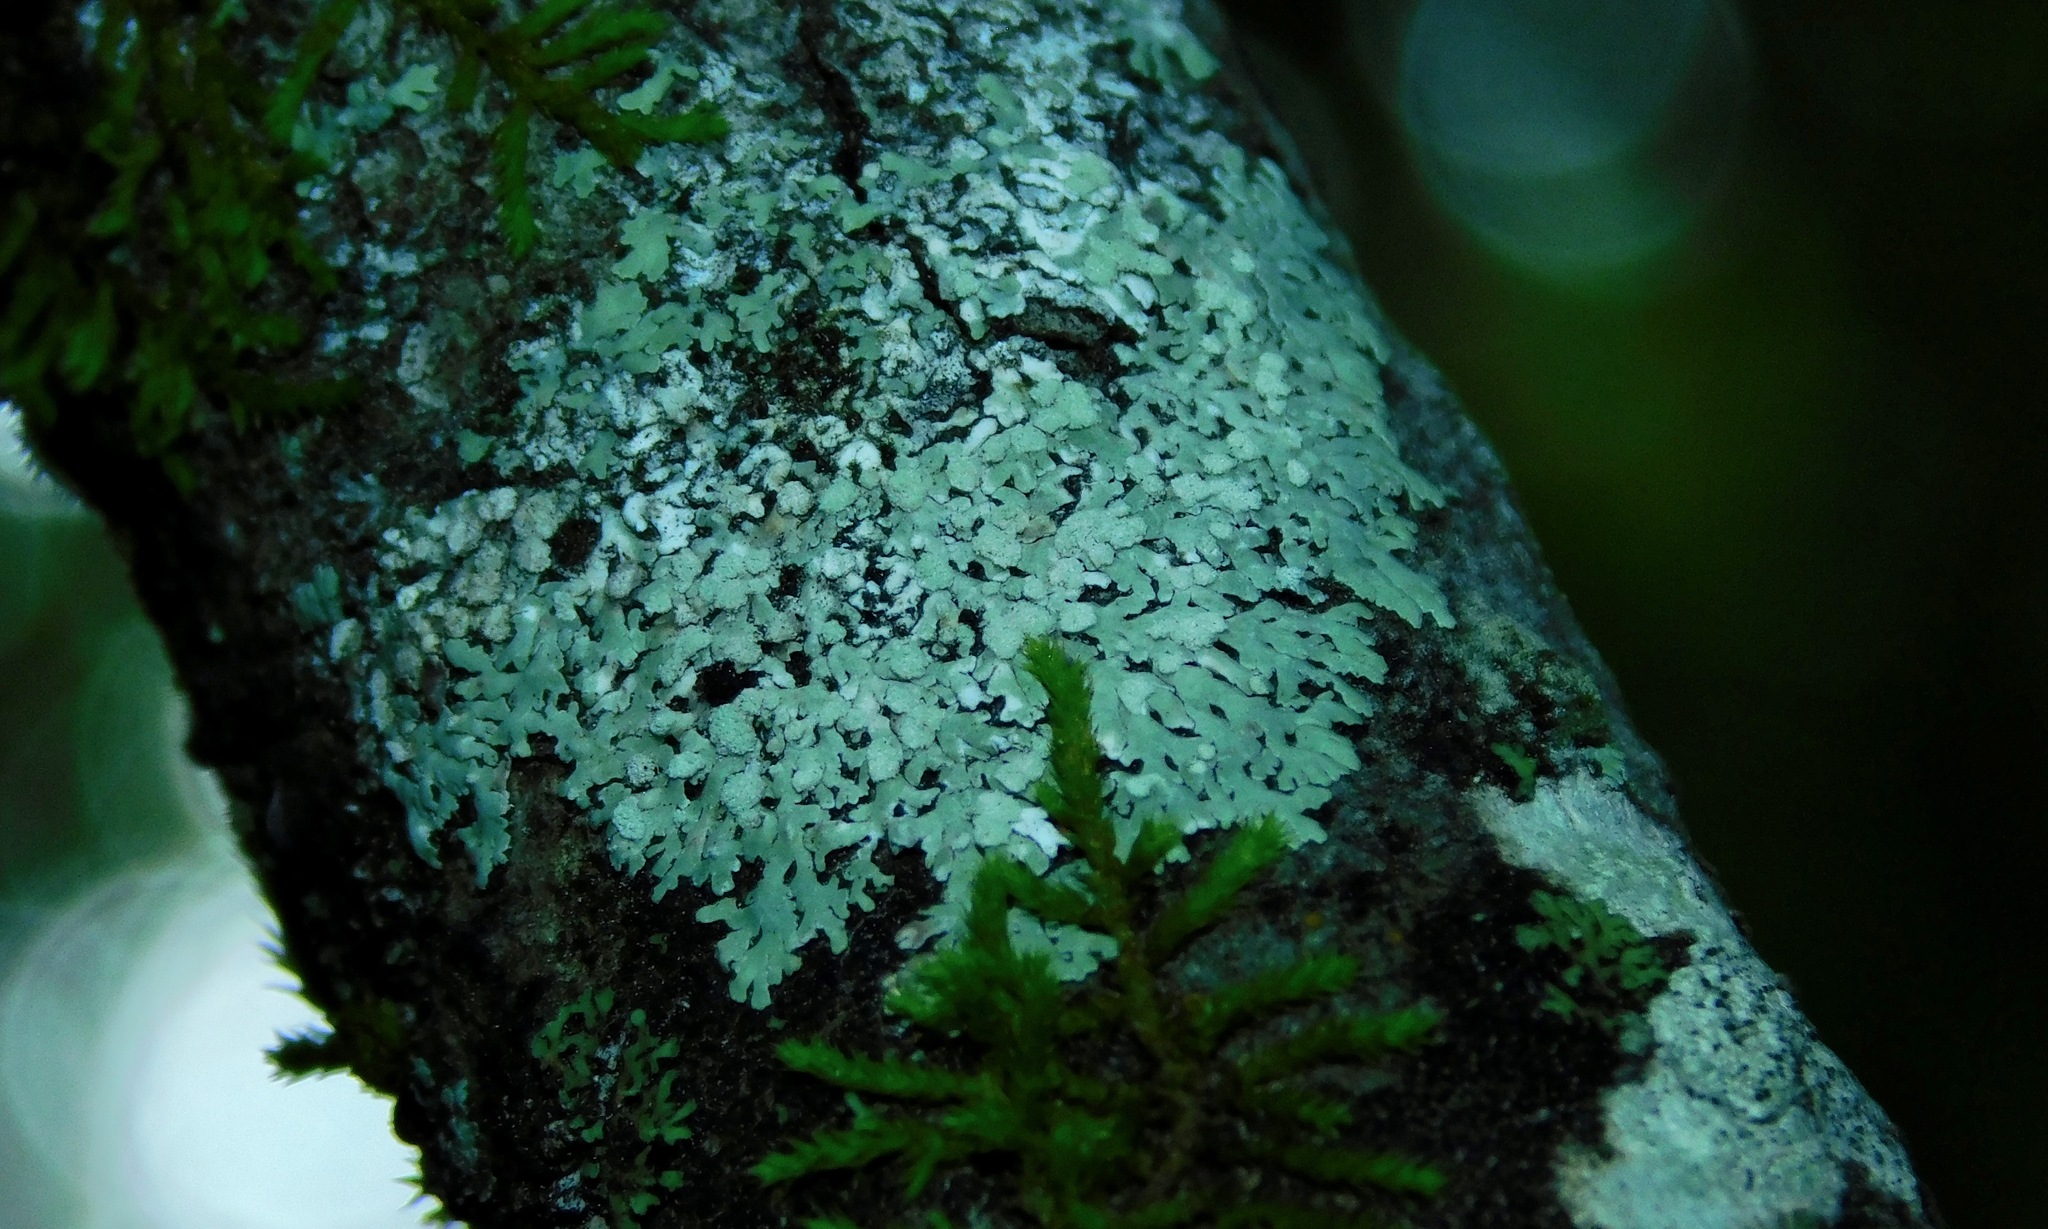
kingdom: Fungi
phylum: Ascomycota
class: Lecanoromycetes
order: Caliciales
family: Caliciaceae
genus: Pyxine
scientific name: Pyxine albovirens
